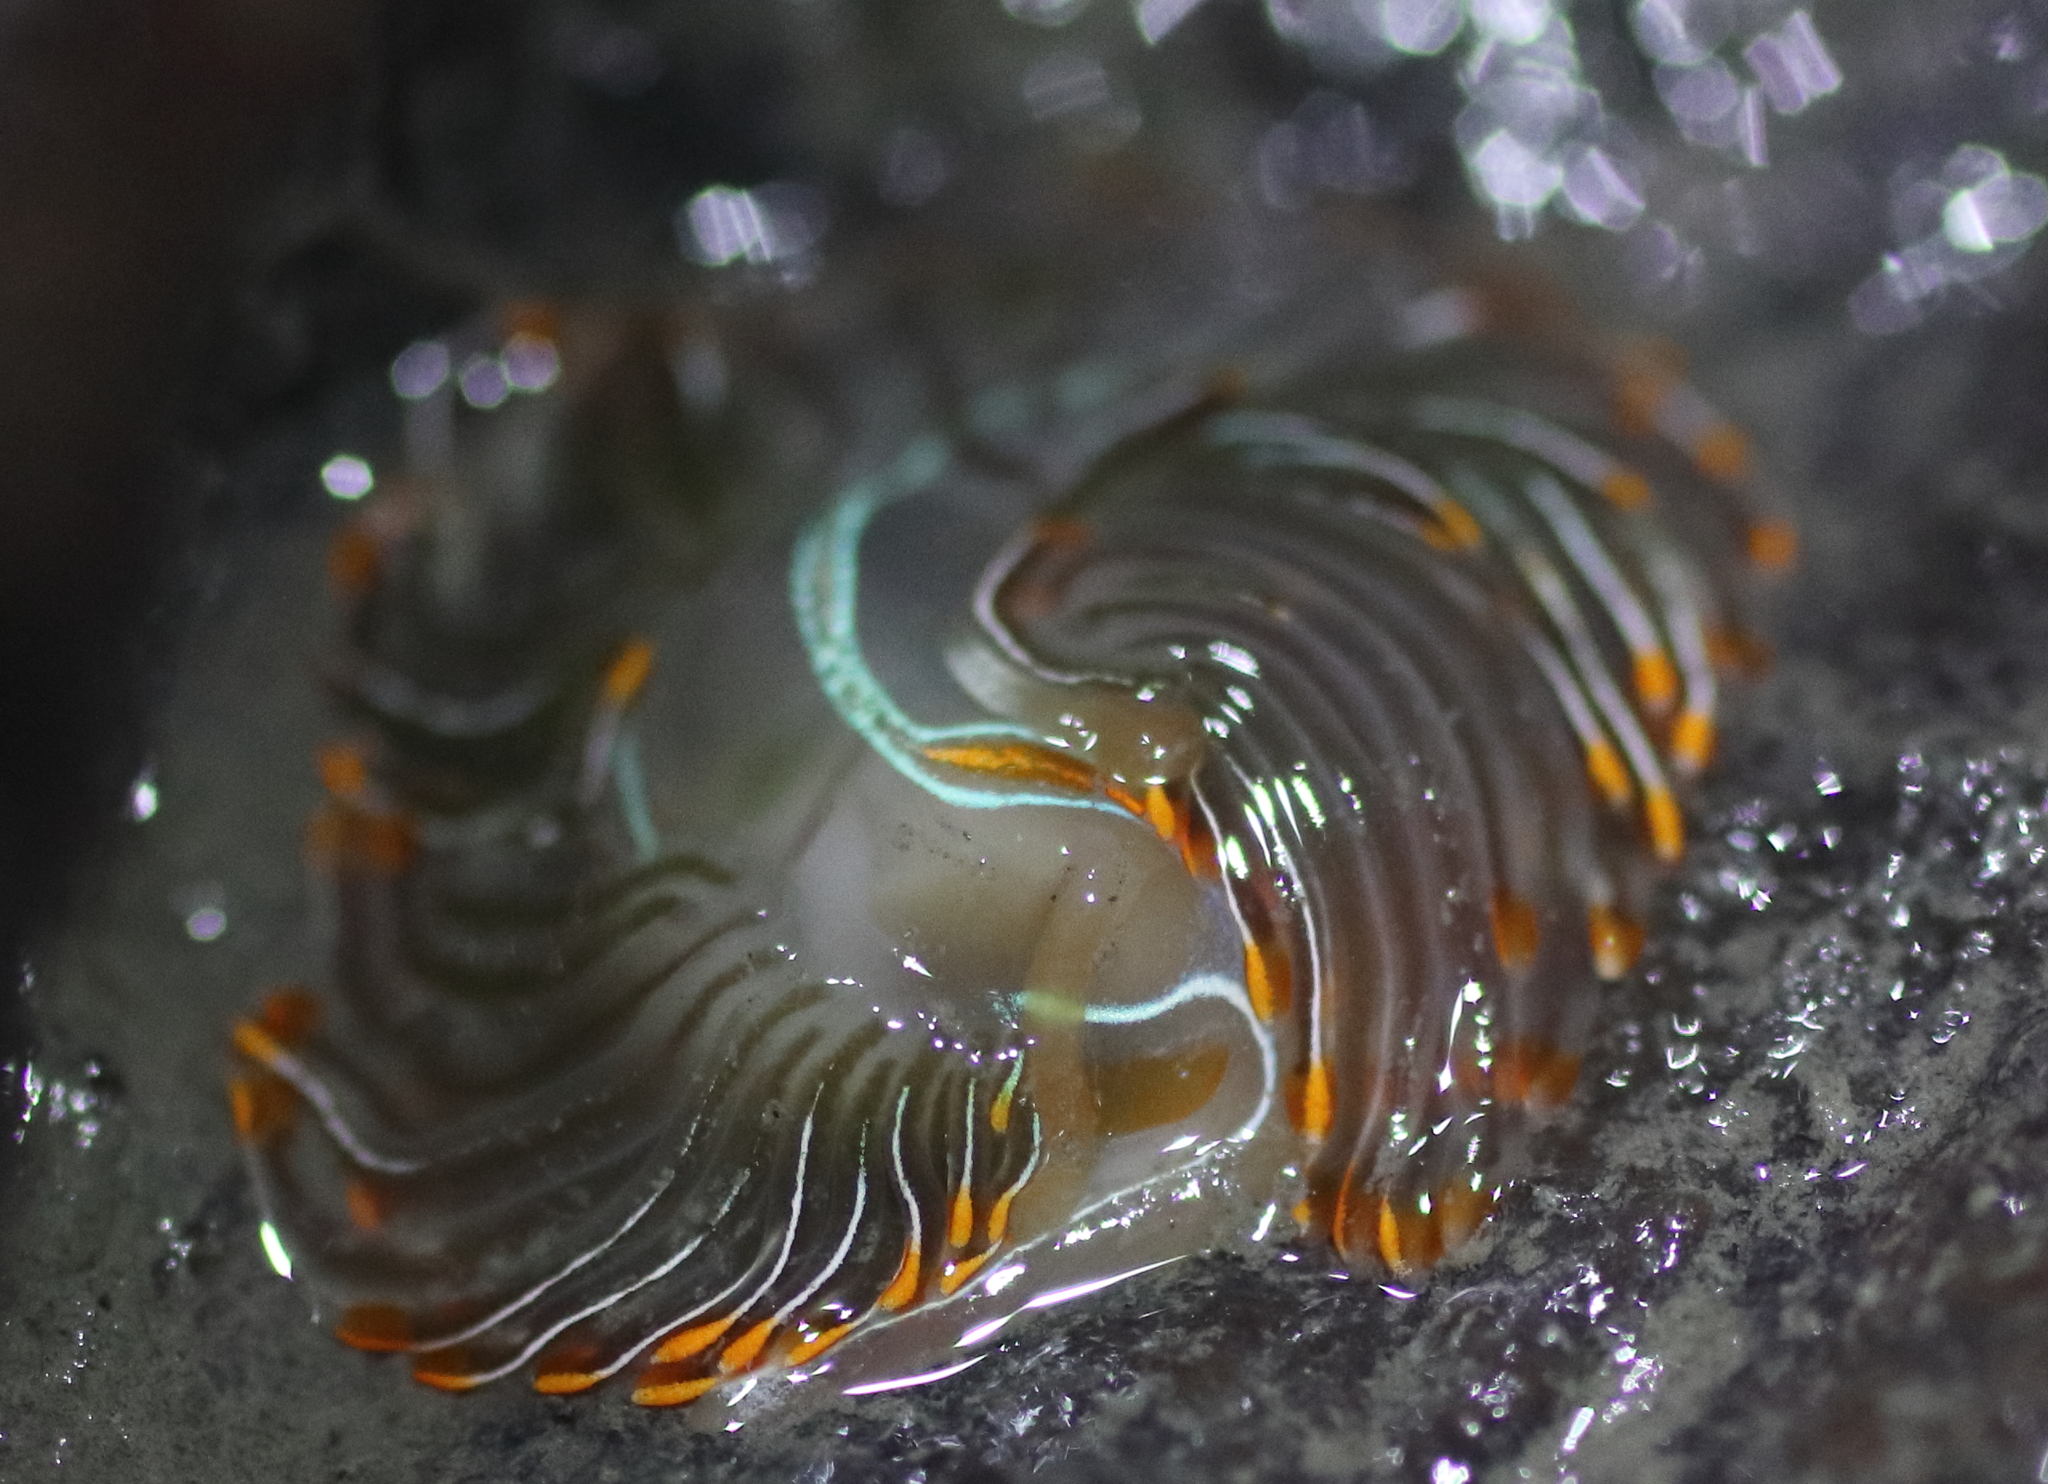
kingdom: Animalia
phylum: Mollusca
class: Gastropoda
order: Nudibranchia
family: Myrrhinidae
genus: Hermissenda
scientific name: Hermissenda crassicornis
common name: Hermissenda
